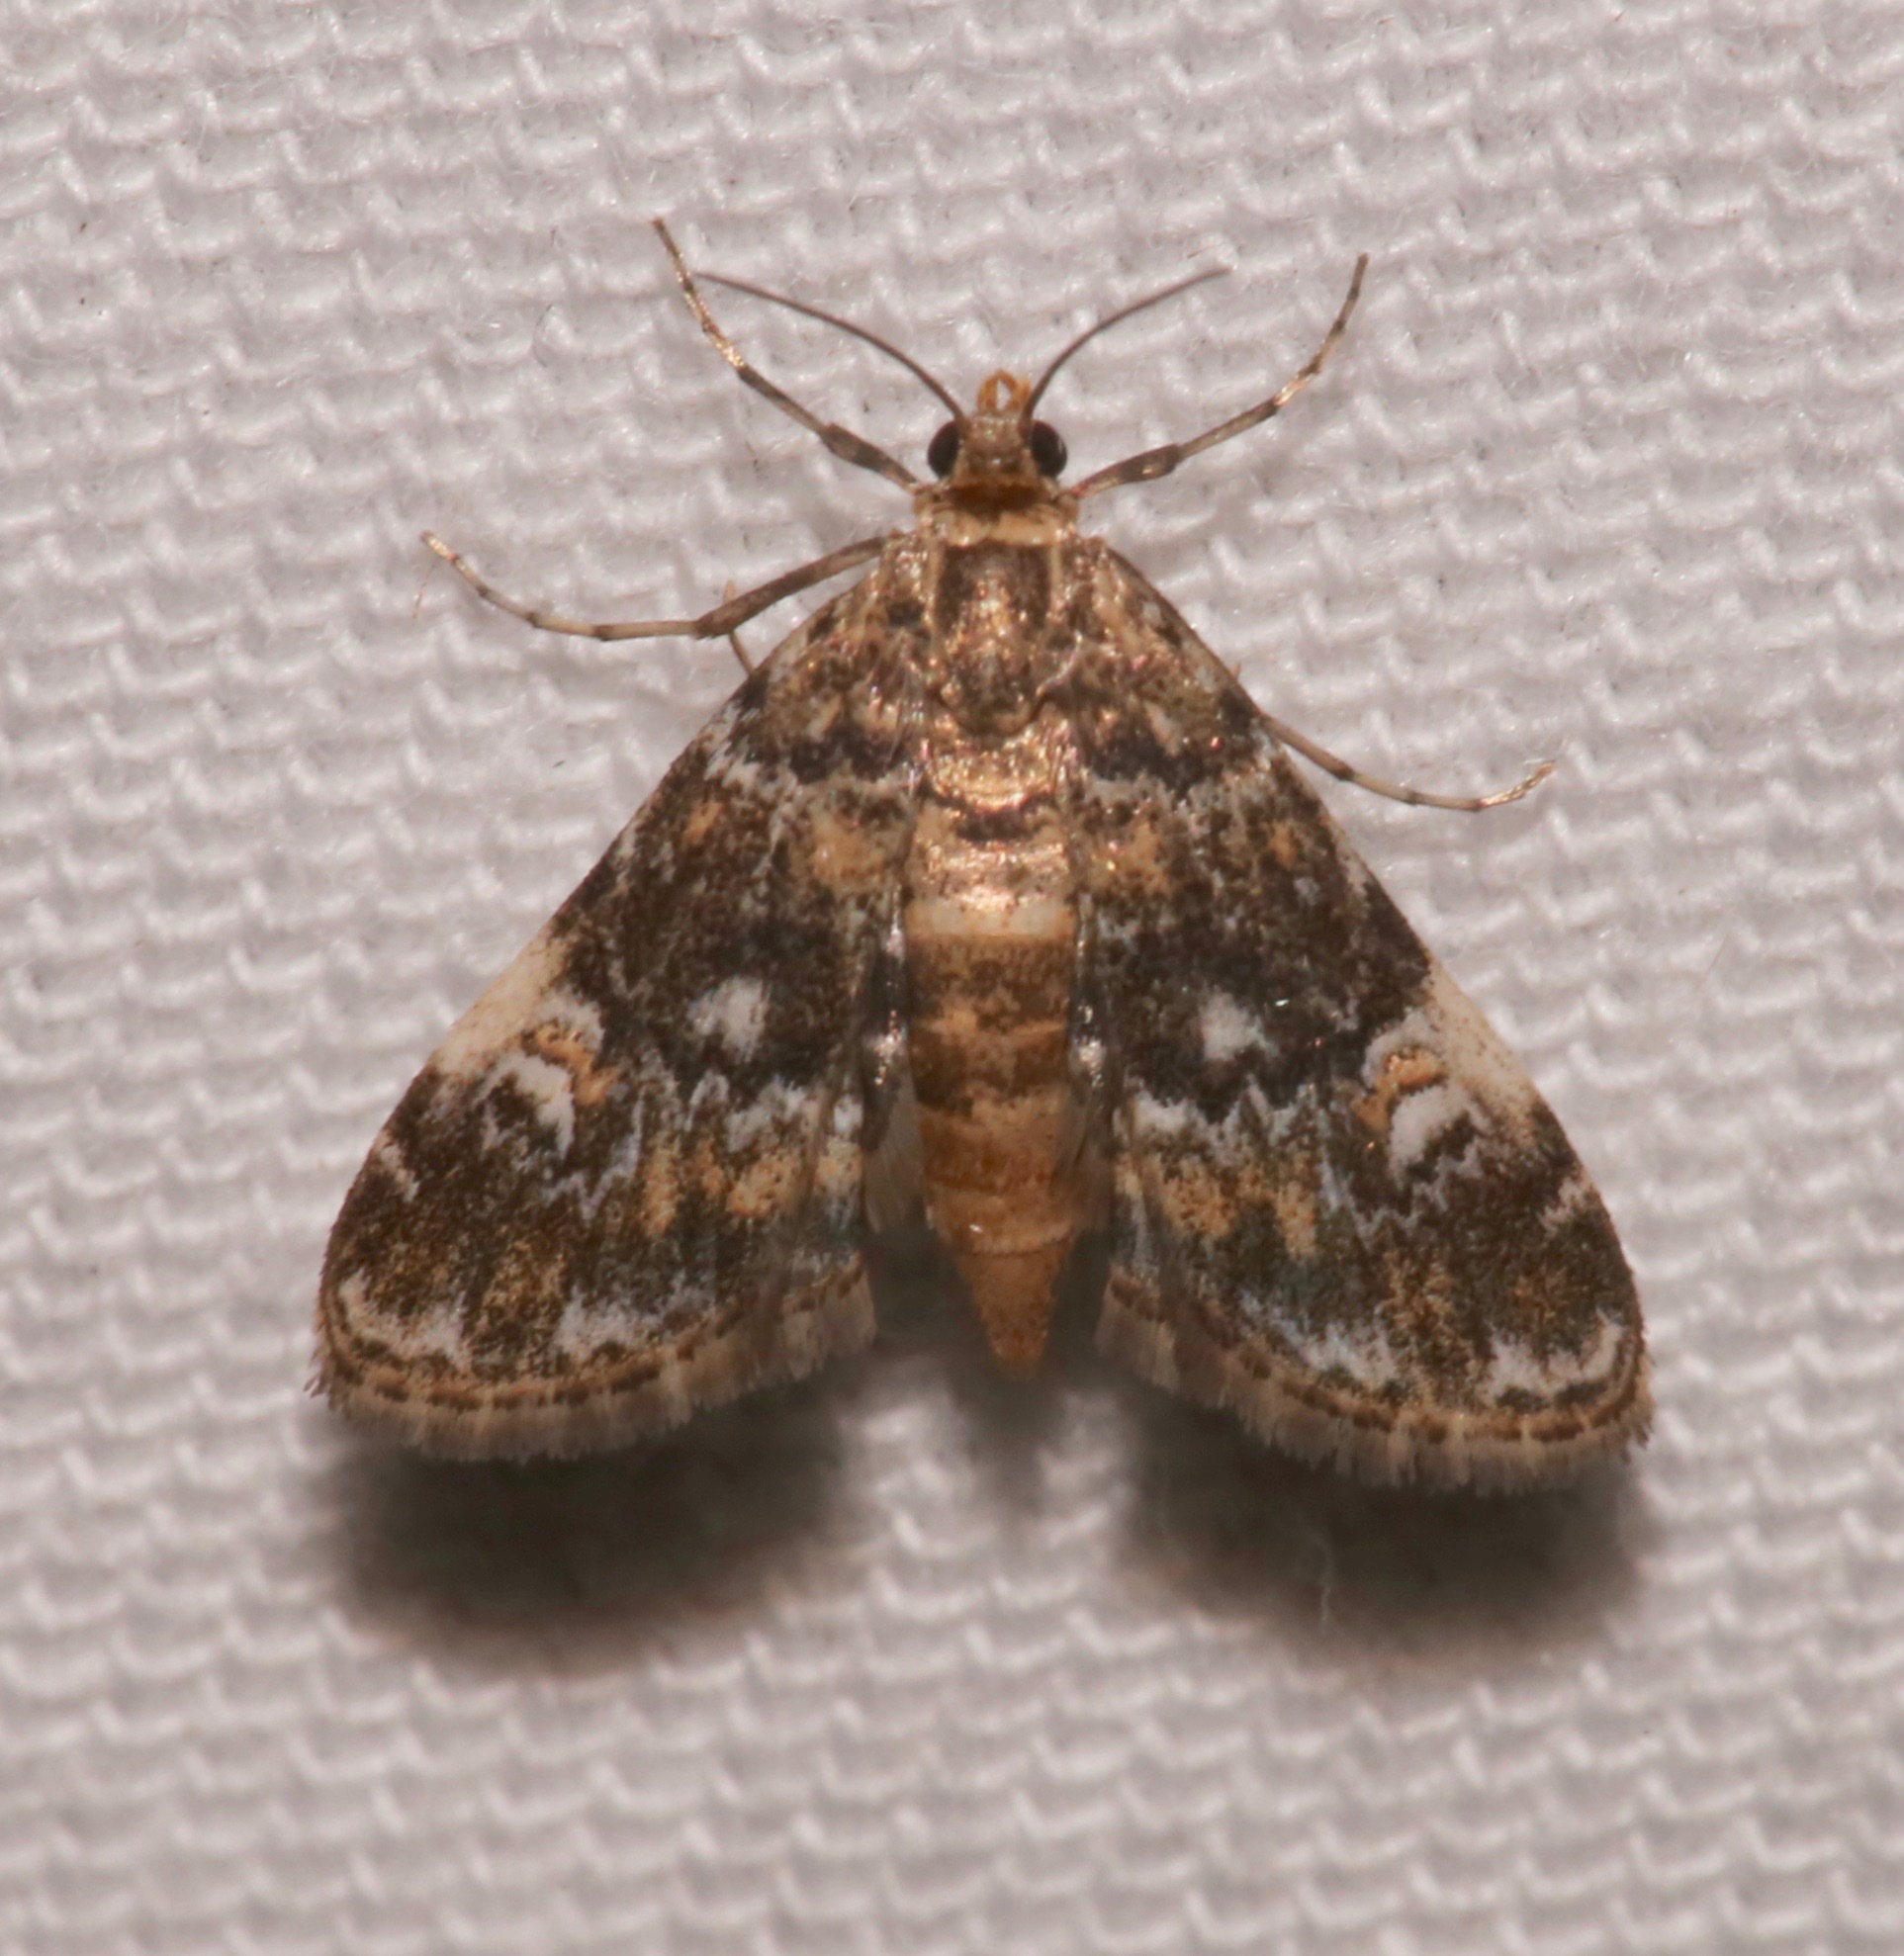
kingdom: Animalia
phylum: Arthropoda
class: Insecta
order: Lepidoptera
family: Crambidae
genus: Elophila
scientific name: Elophila obliteralis
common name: Waterlily leafcutter moth
